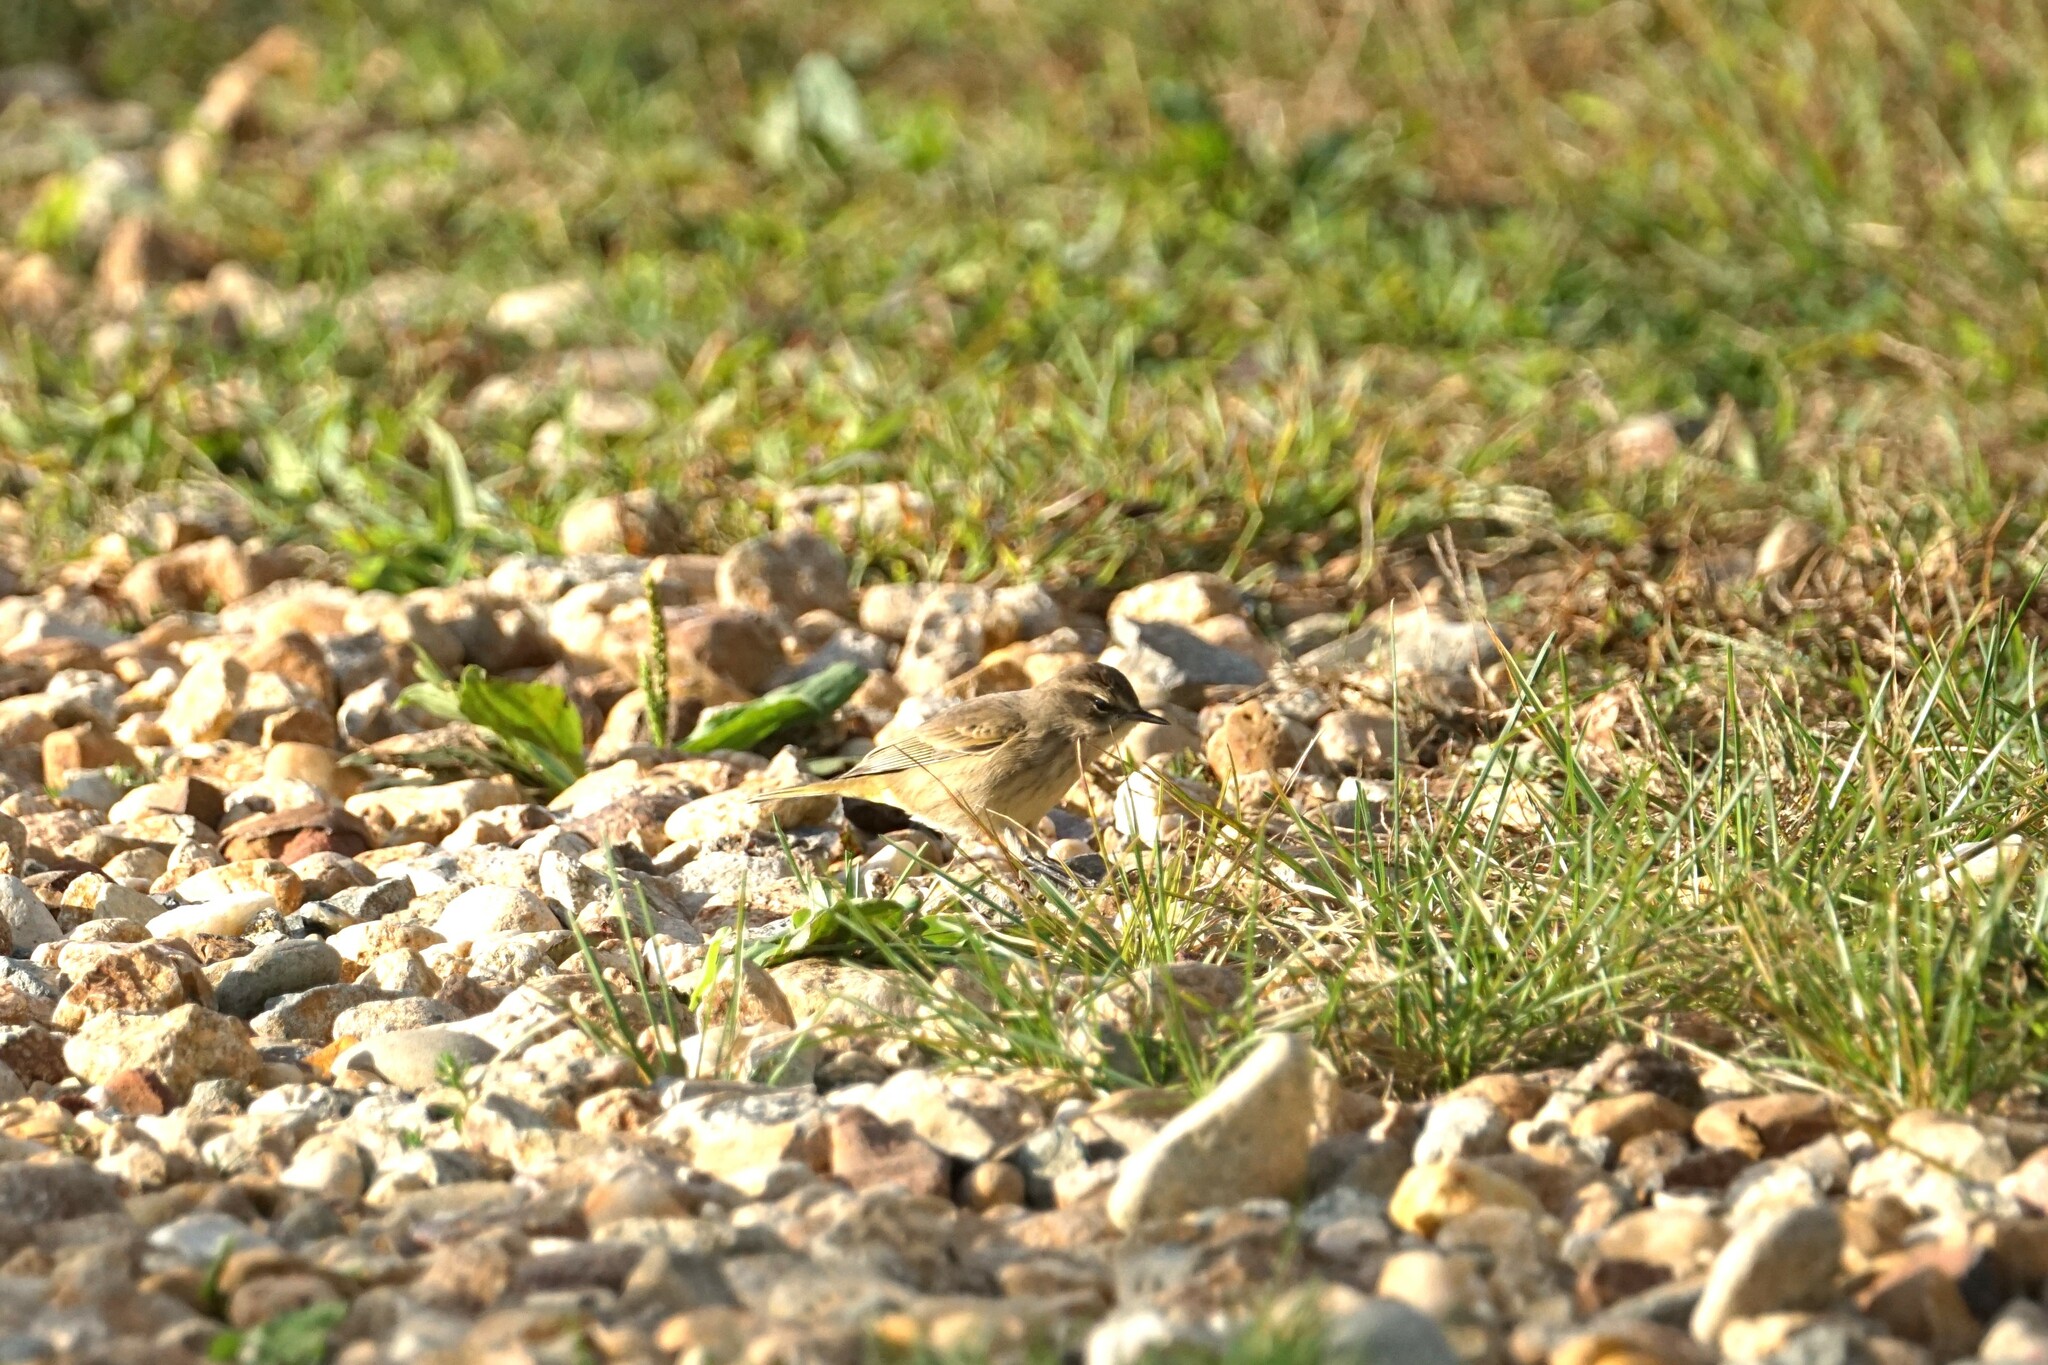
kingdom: Animalia
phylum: Chordata
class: Aves
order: Passeriformes
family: Parulidae
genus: Setophaga
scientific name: Setophaga palmarum
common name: Palm warbler
